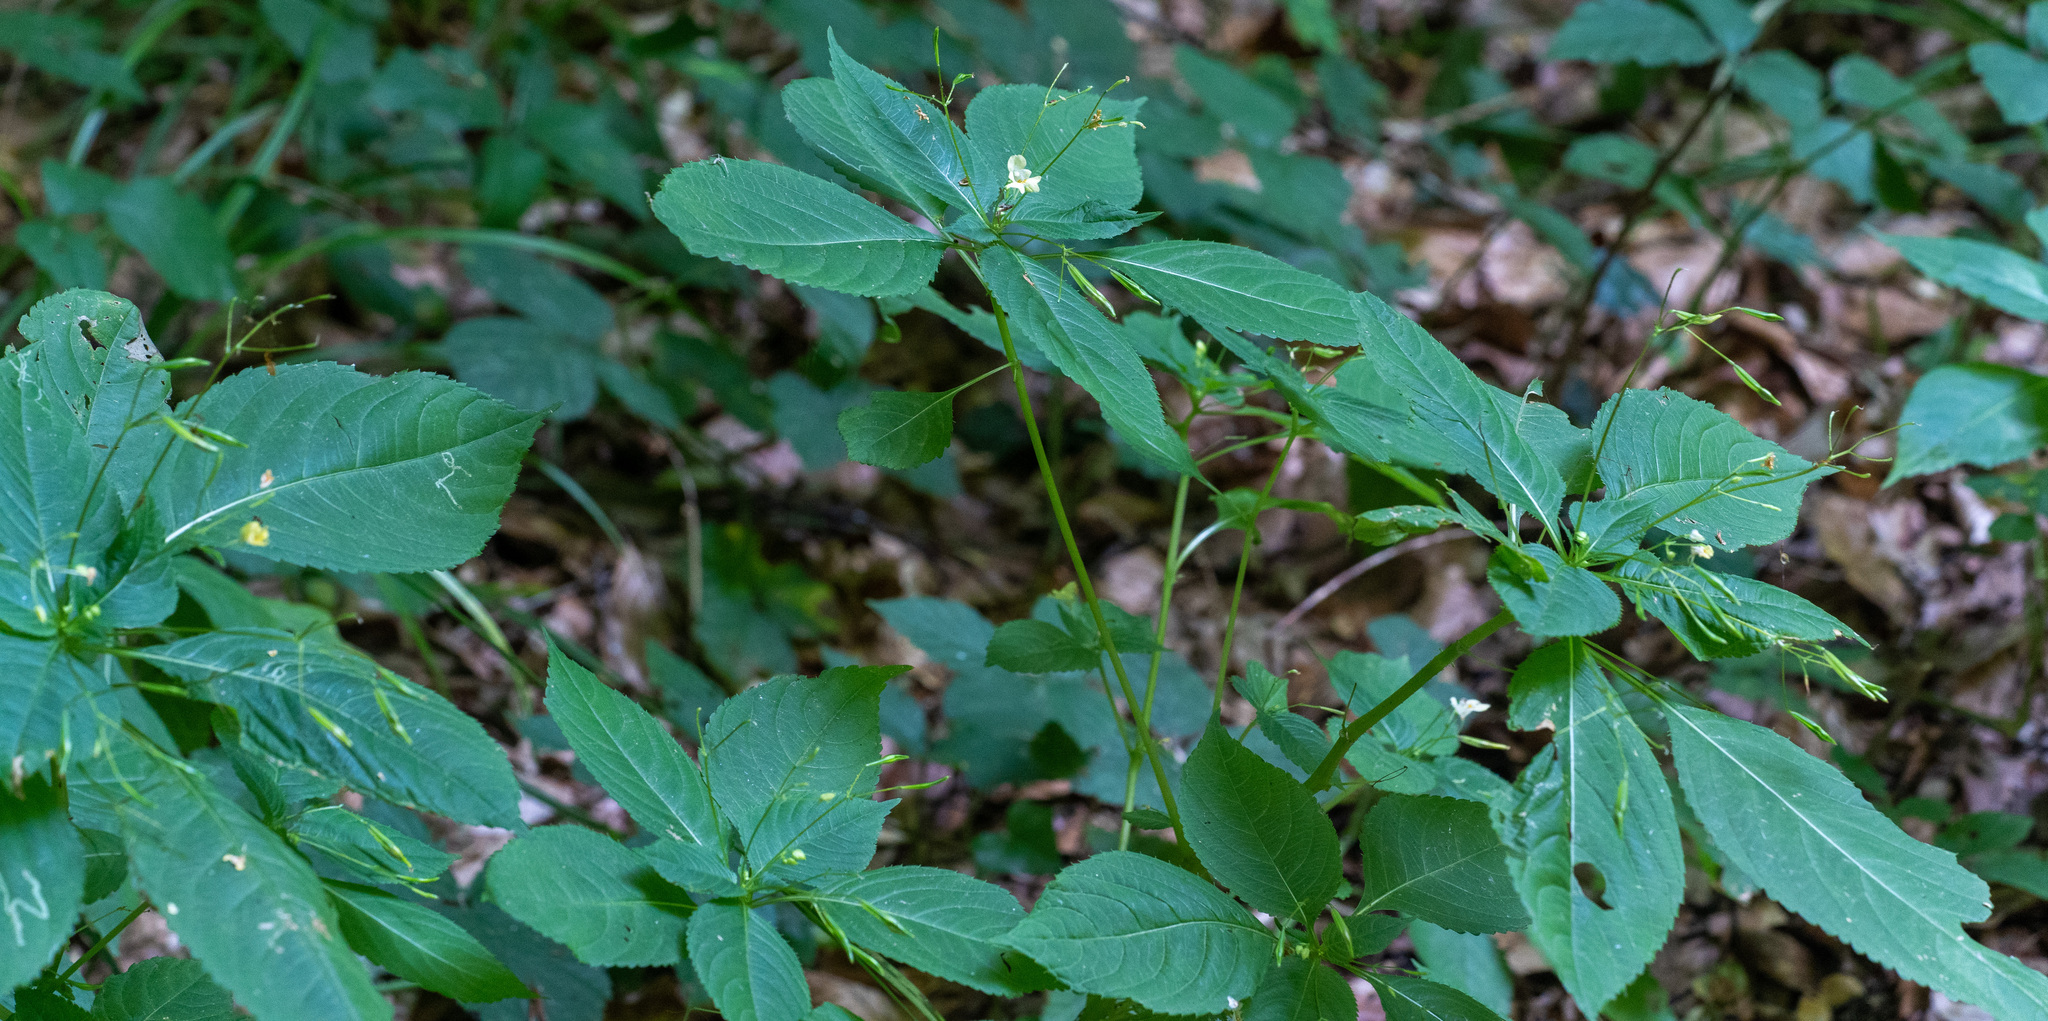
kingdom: Plantae
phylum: Tracheophyta
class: Magnoliopsida
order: Ericales
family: Balsaminaceae
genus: Impatiens
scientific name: Impatiens parviflora
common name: Small balsam
